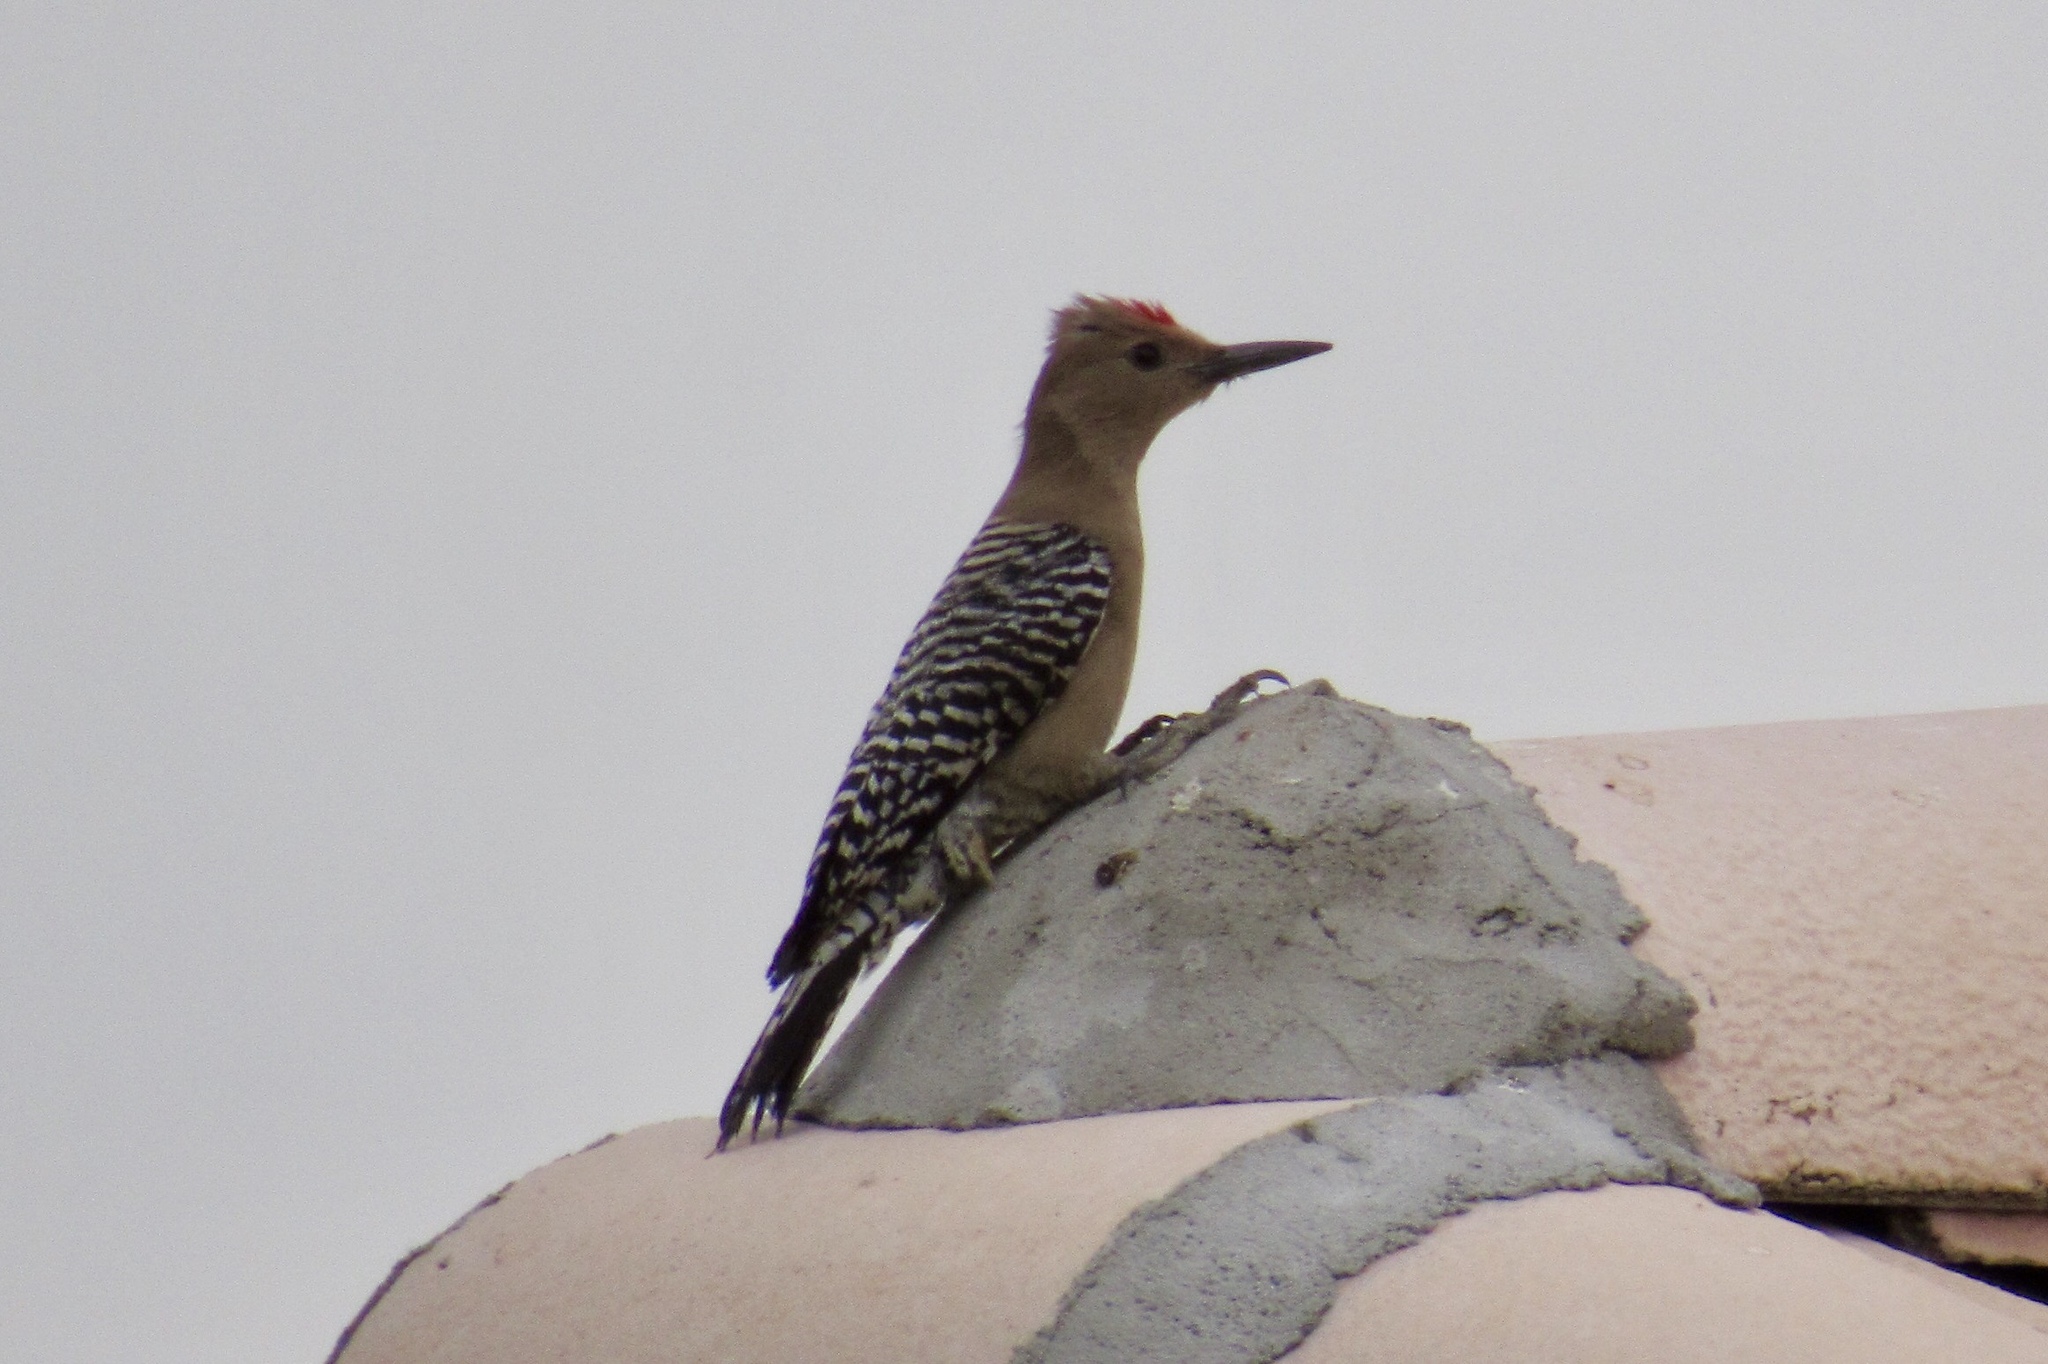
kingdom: Animalia
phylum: Chordata
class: Aves
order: Piciformes
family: Picidae
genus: Melanerpes
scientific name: Melanerpes uropygialis
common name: Gila woodpecker
